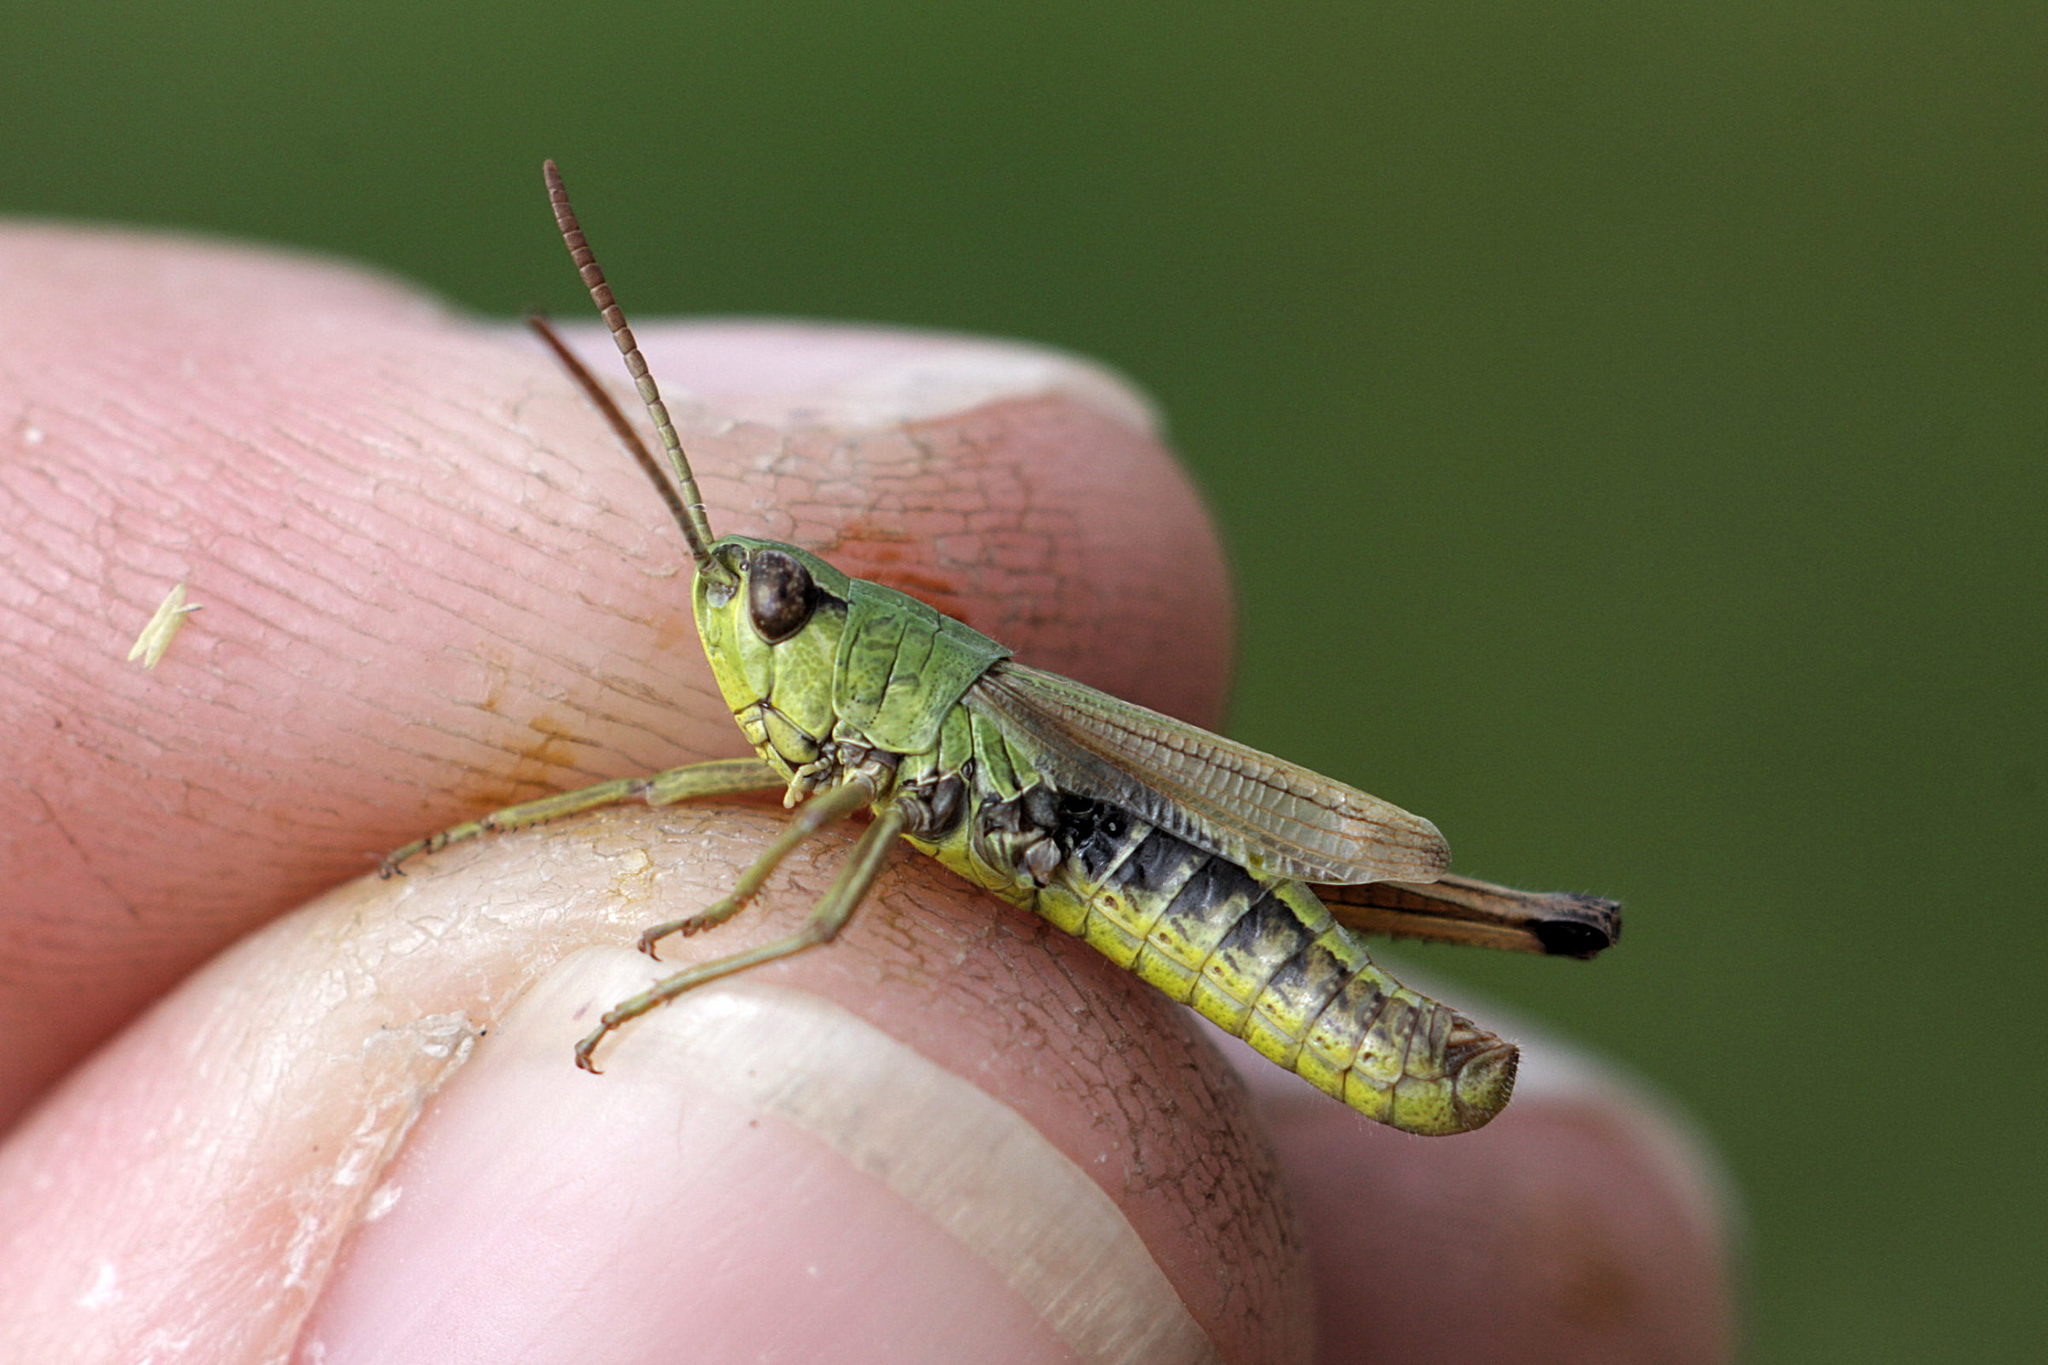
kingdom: Animalia
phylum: Arthropoda
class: Insecta
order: Orthoptera
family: Acrididae
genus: Pseudochorthippus
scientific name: Pseudochorthippus parallelus
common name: Meadow grasshopper
